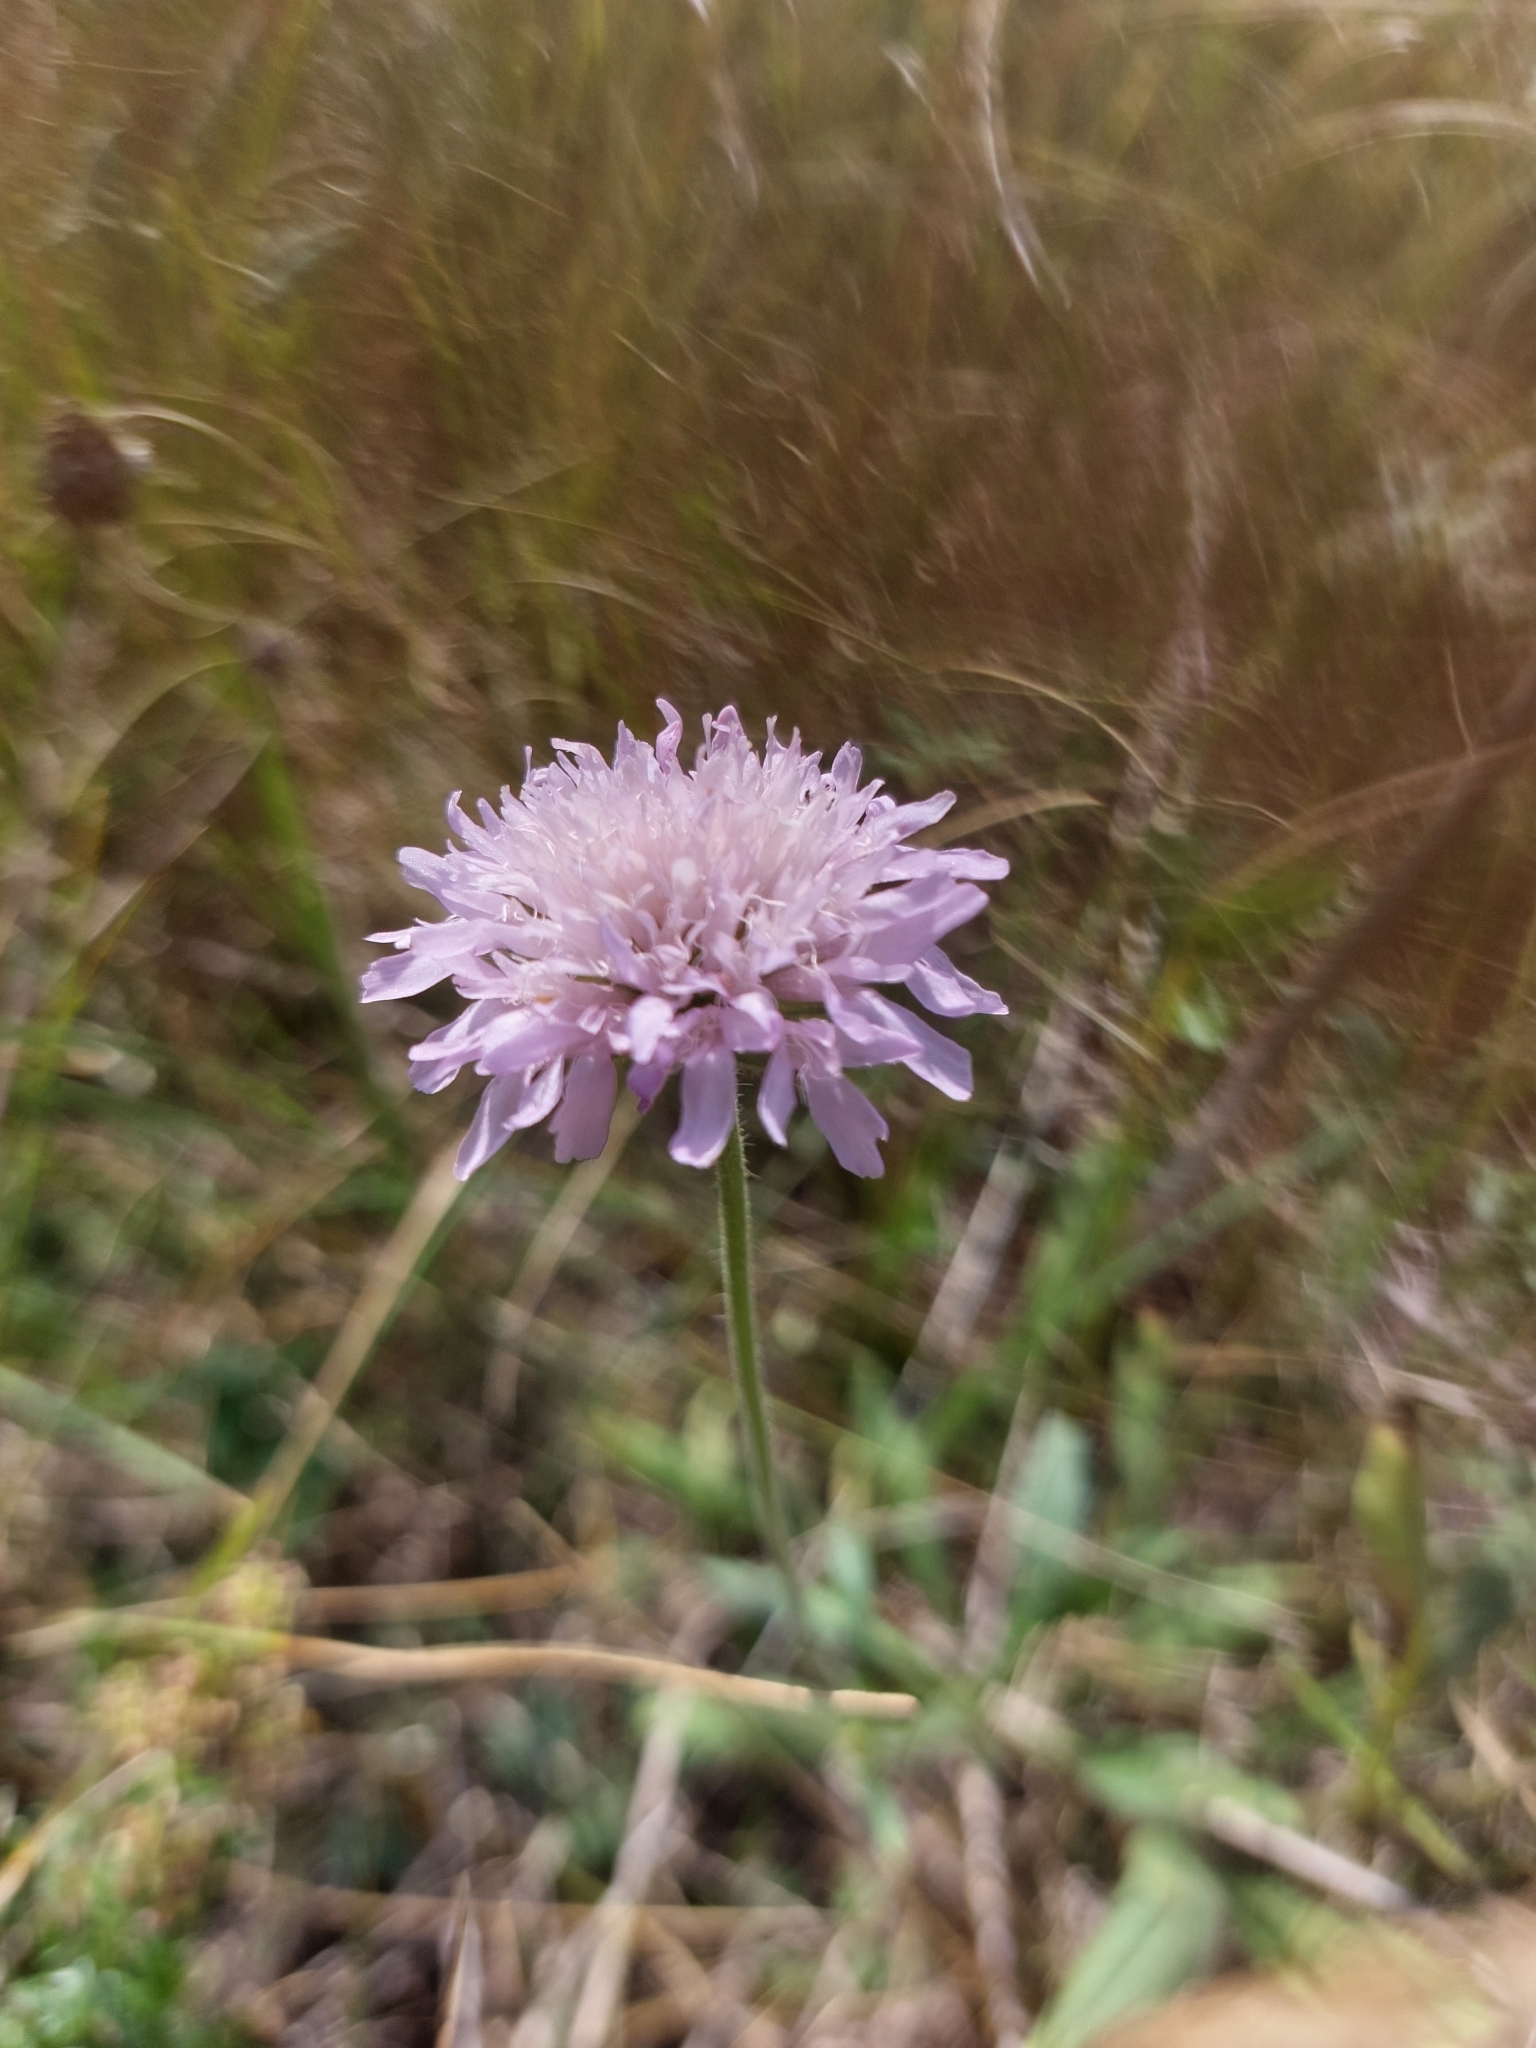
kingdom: Plantae
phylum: Tracheophyta
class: Magnoliopsida
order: Dipsacales
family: Caprifoliaceae
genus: Knautia
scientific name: Knautia arvensis
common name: Field scabiosa
